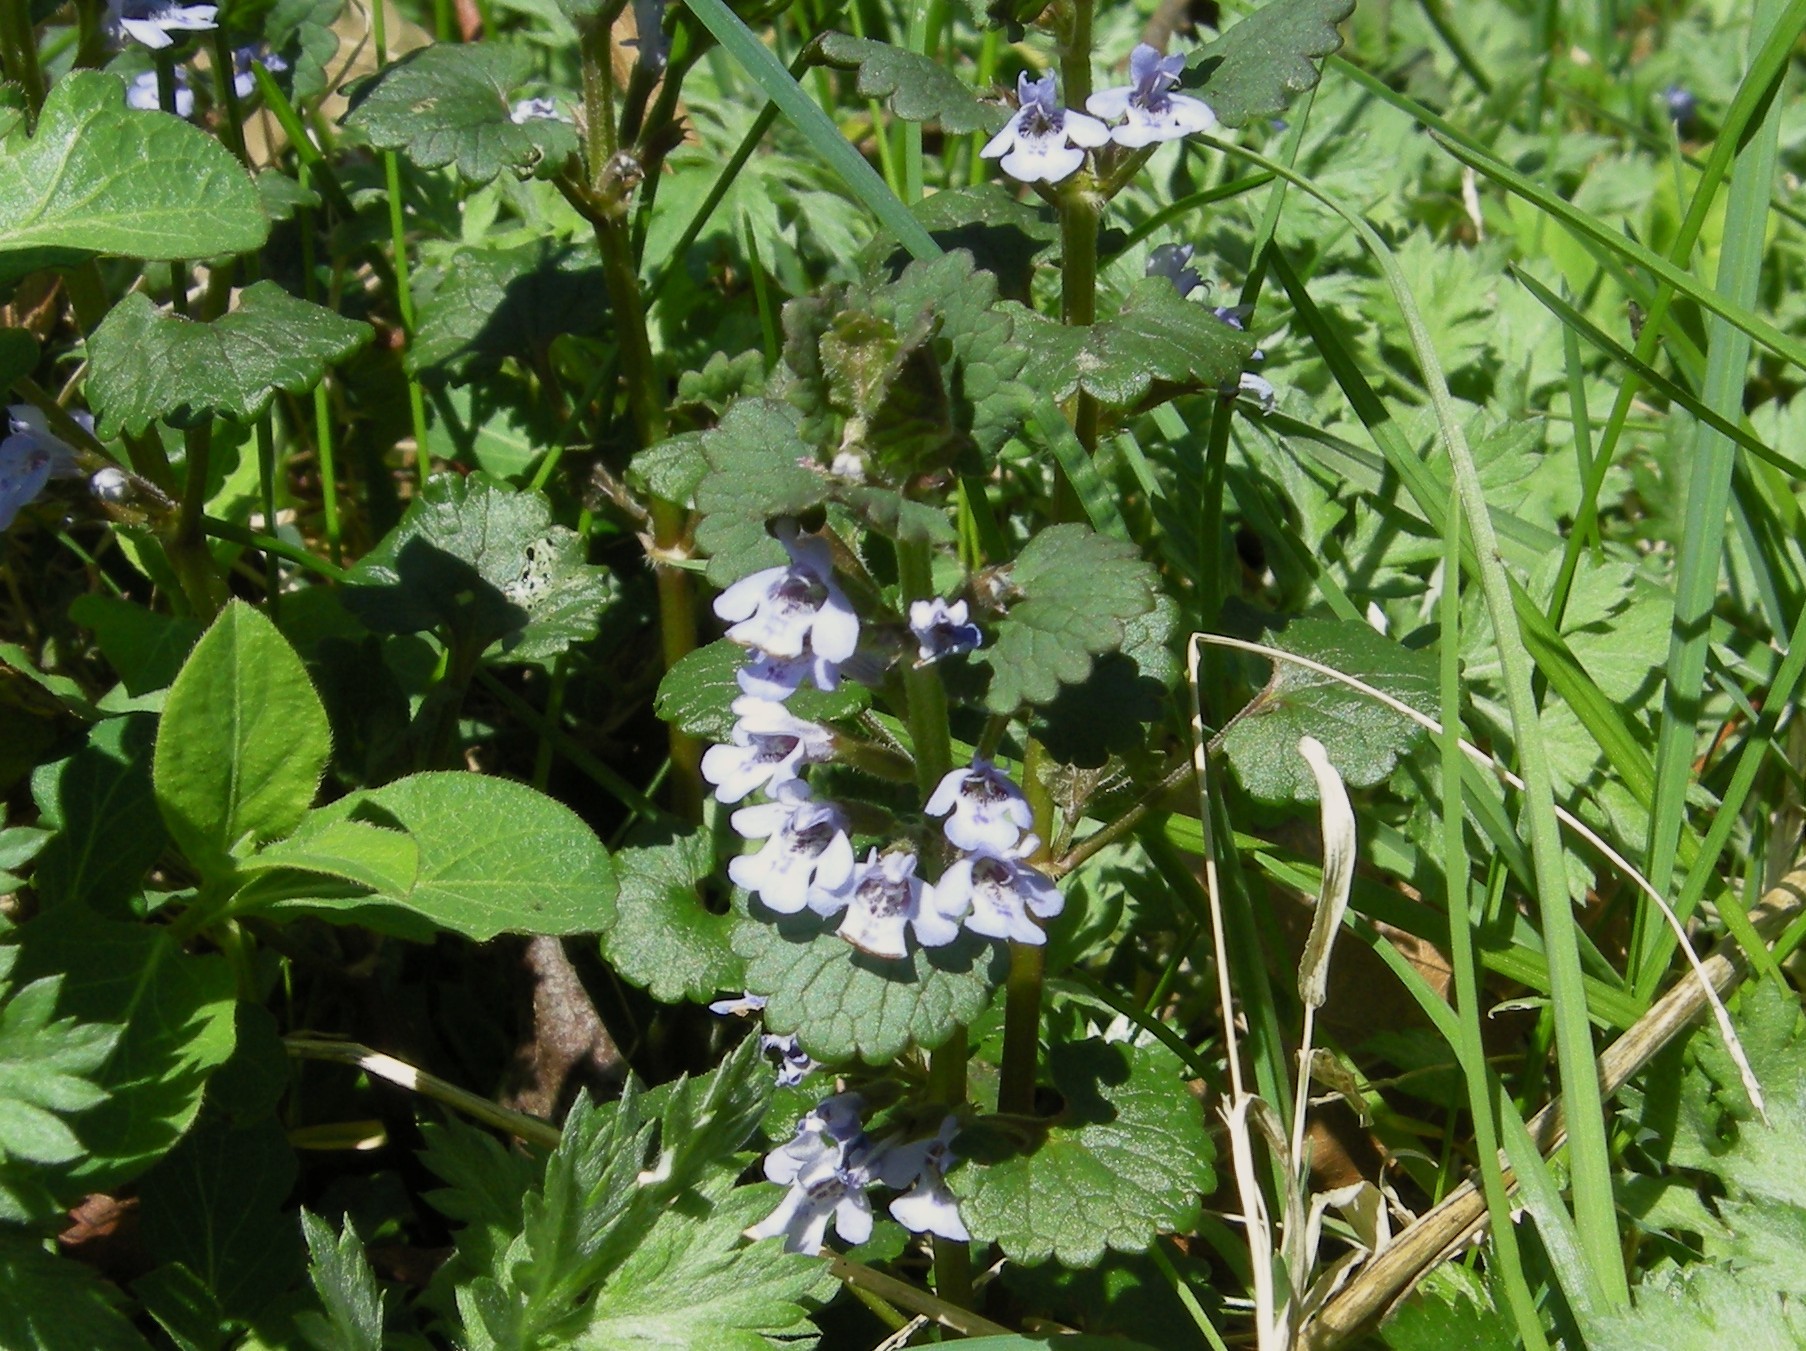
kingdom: Plantae
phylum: Tracheophyta
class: Magnoliopsida
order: Lamiales
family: Lamiaceae
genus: Glechoma
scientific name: Glechoma hederacea
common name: Ground ivy
